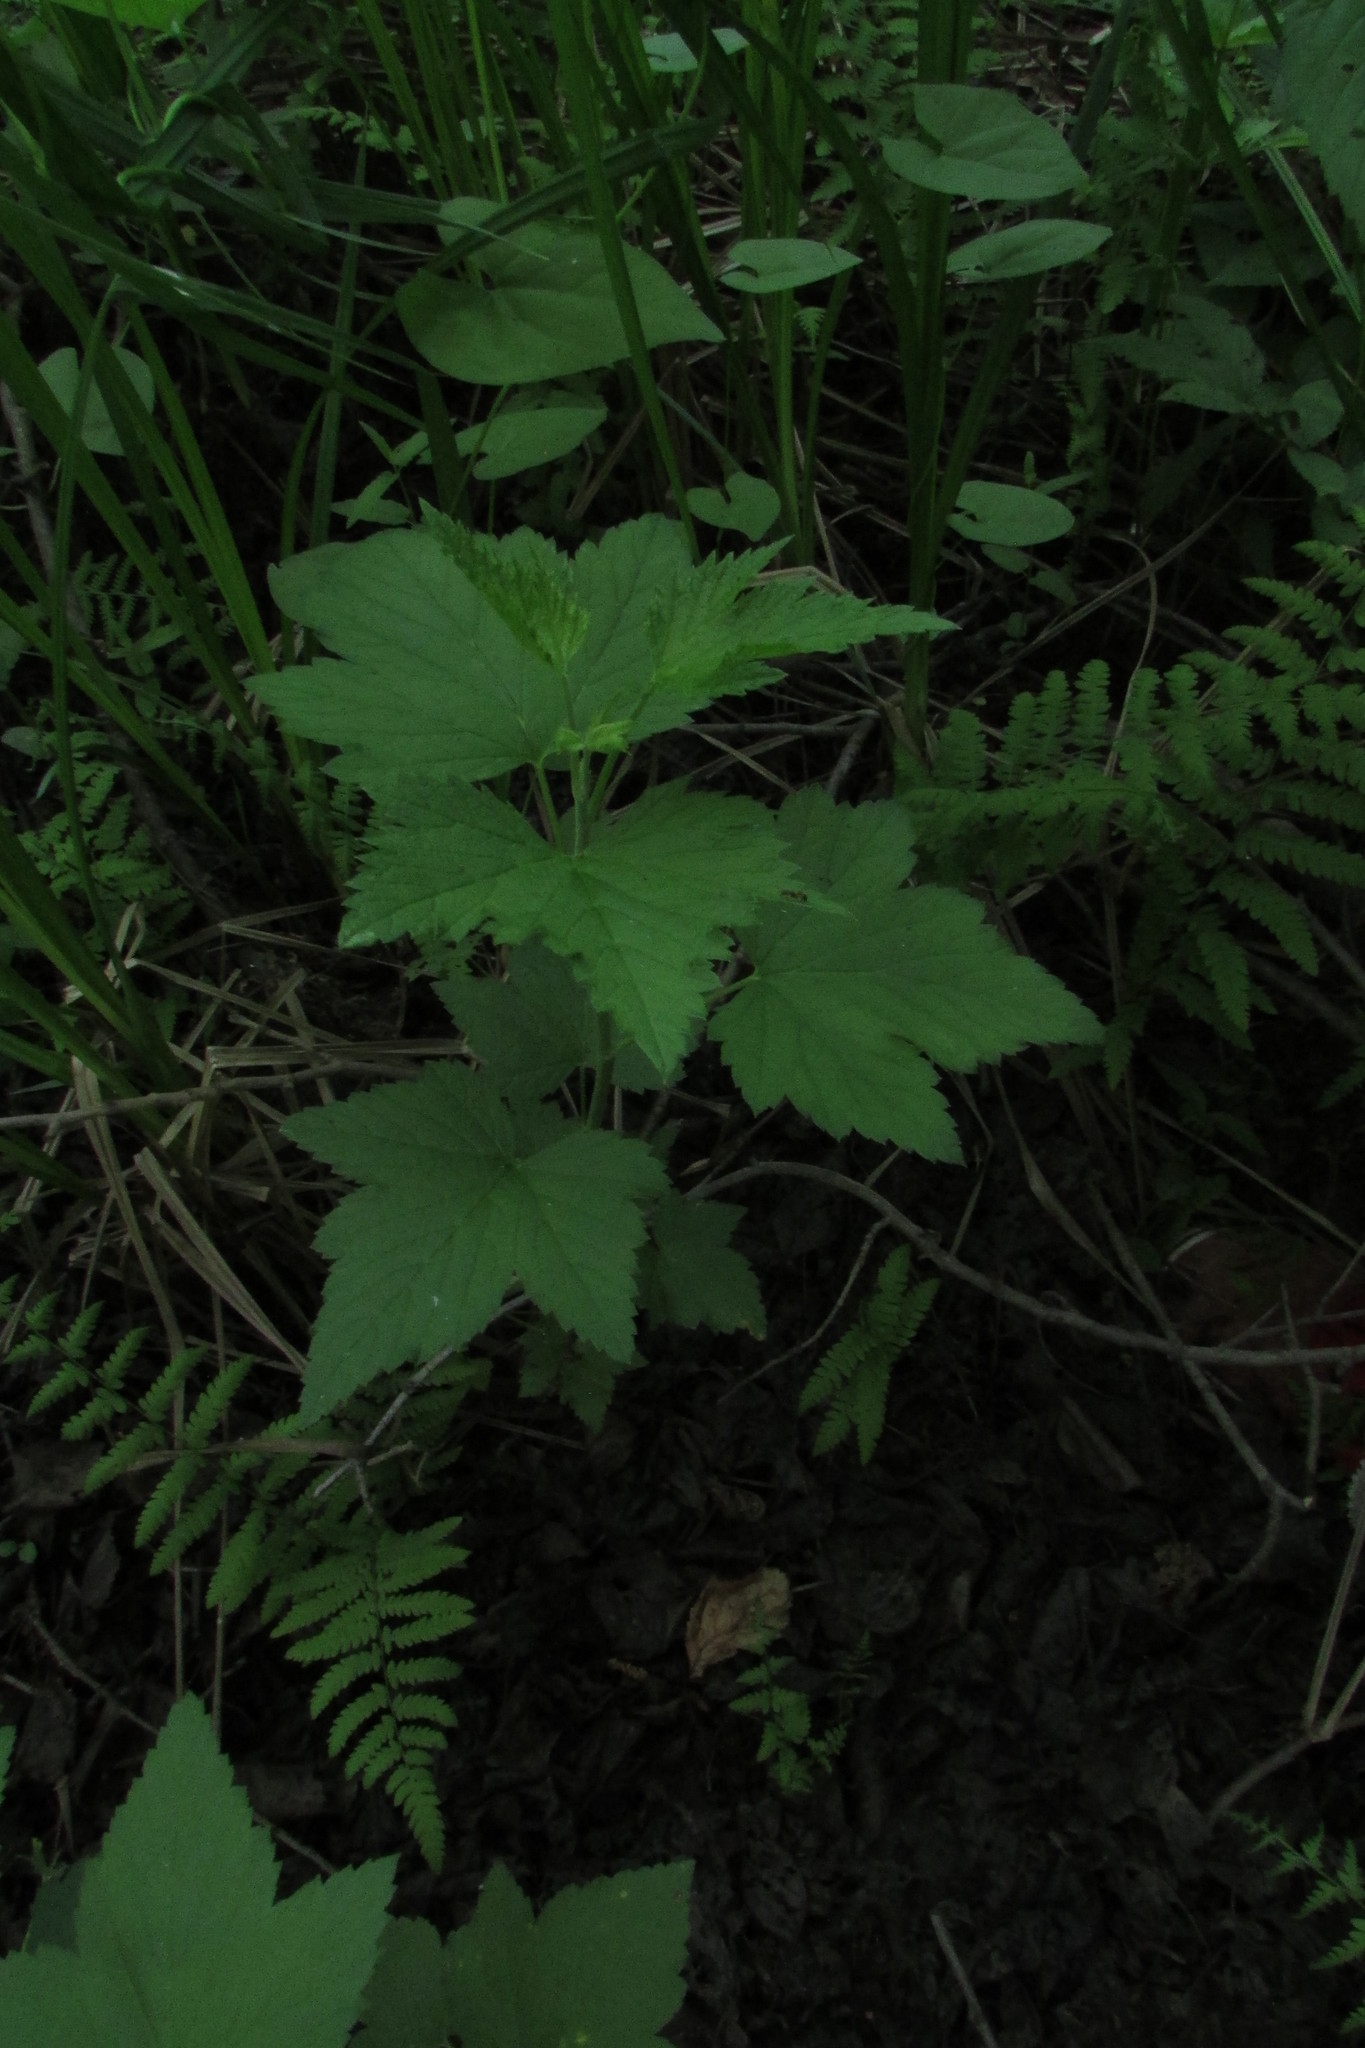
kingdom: Plantae
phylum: Tracheophyta
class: Magnoliopsida
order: Saxifragales
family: Grossulariaceae
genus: Ribes
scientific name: Ribes nigrum
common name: Black currant
